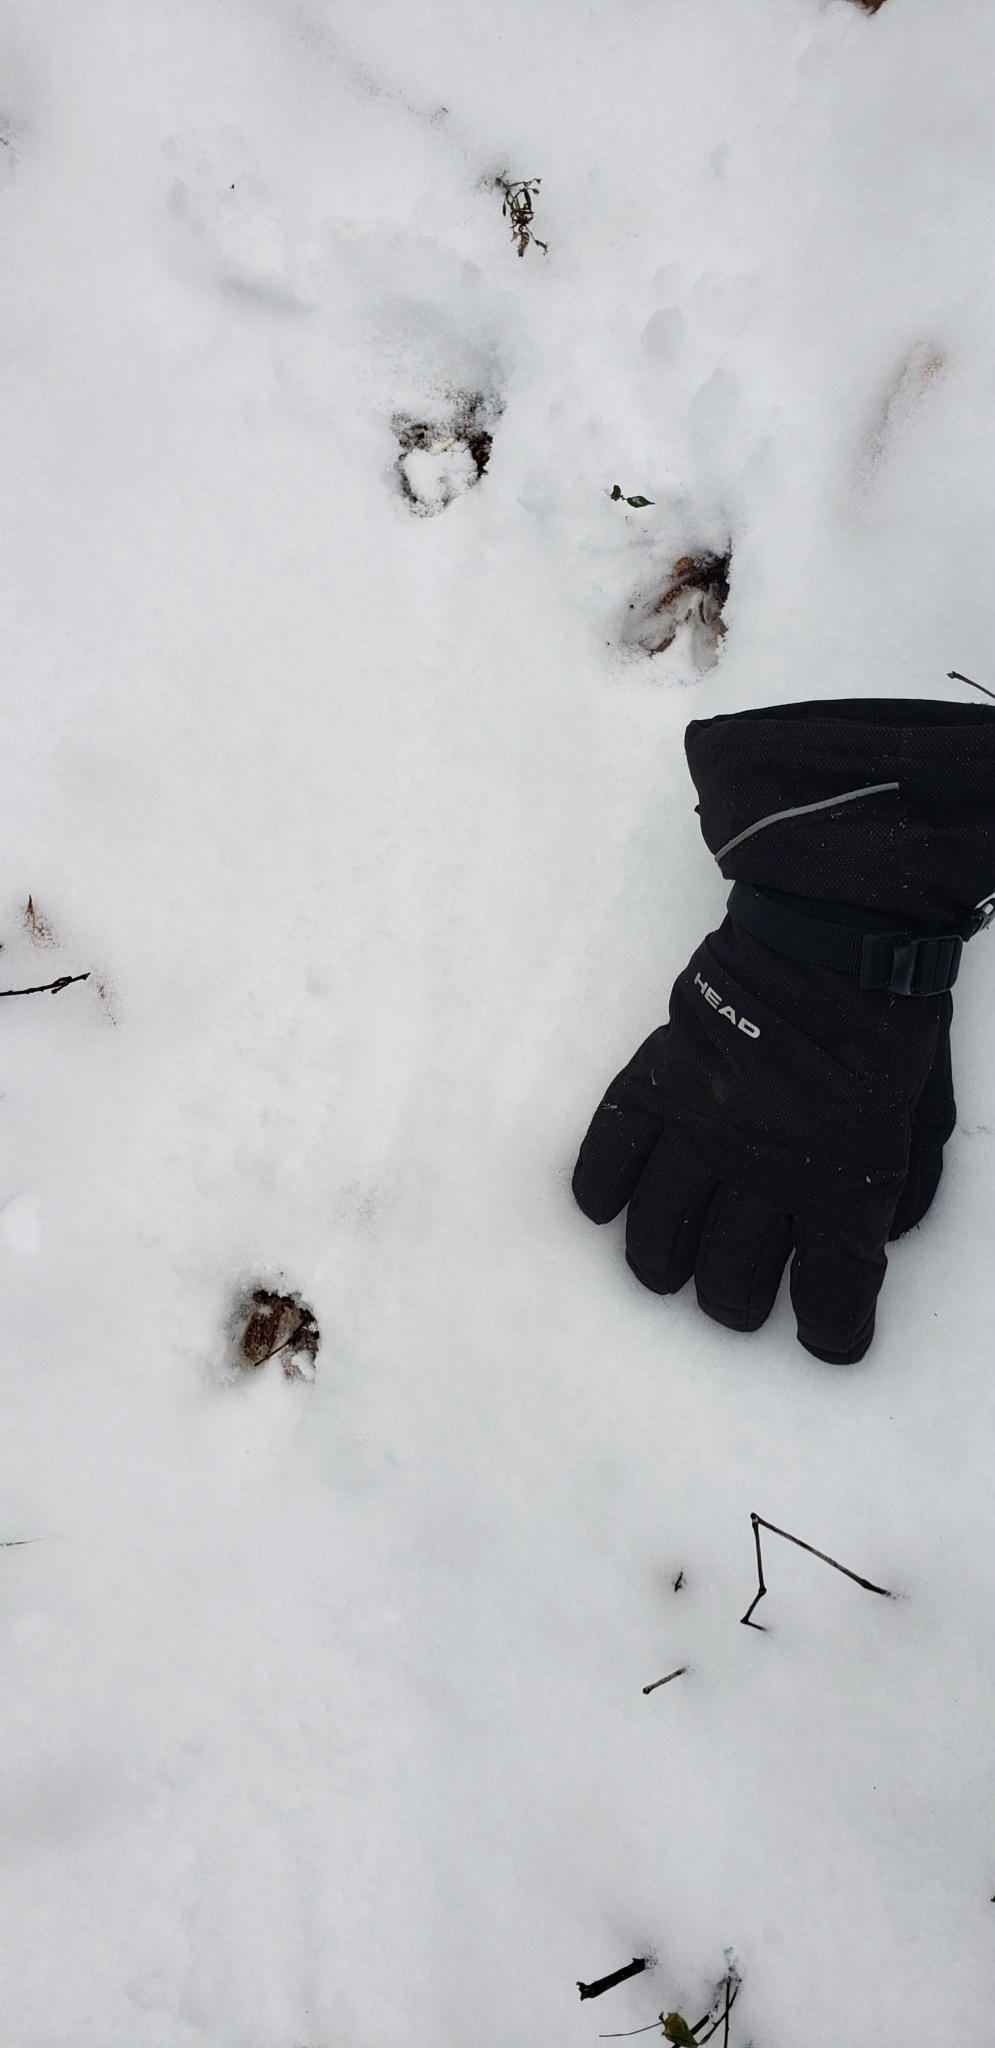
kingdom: Animalia
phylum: Chordata
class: Mammalia
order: Artiodactyla
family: Cervidae
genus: Odocoileus
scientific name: Odocoileus virginianus
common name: White-tailed deer
